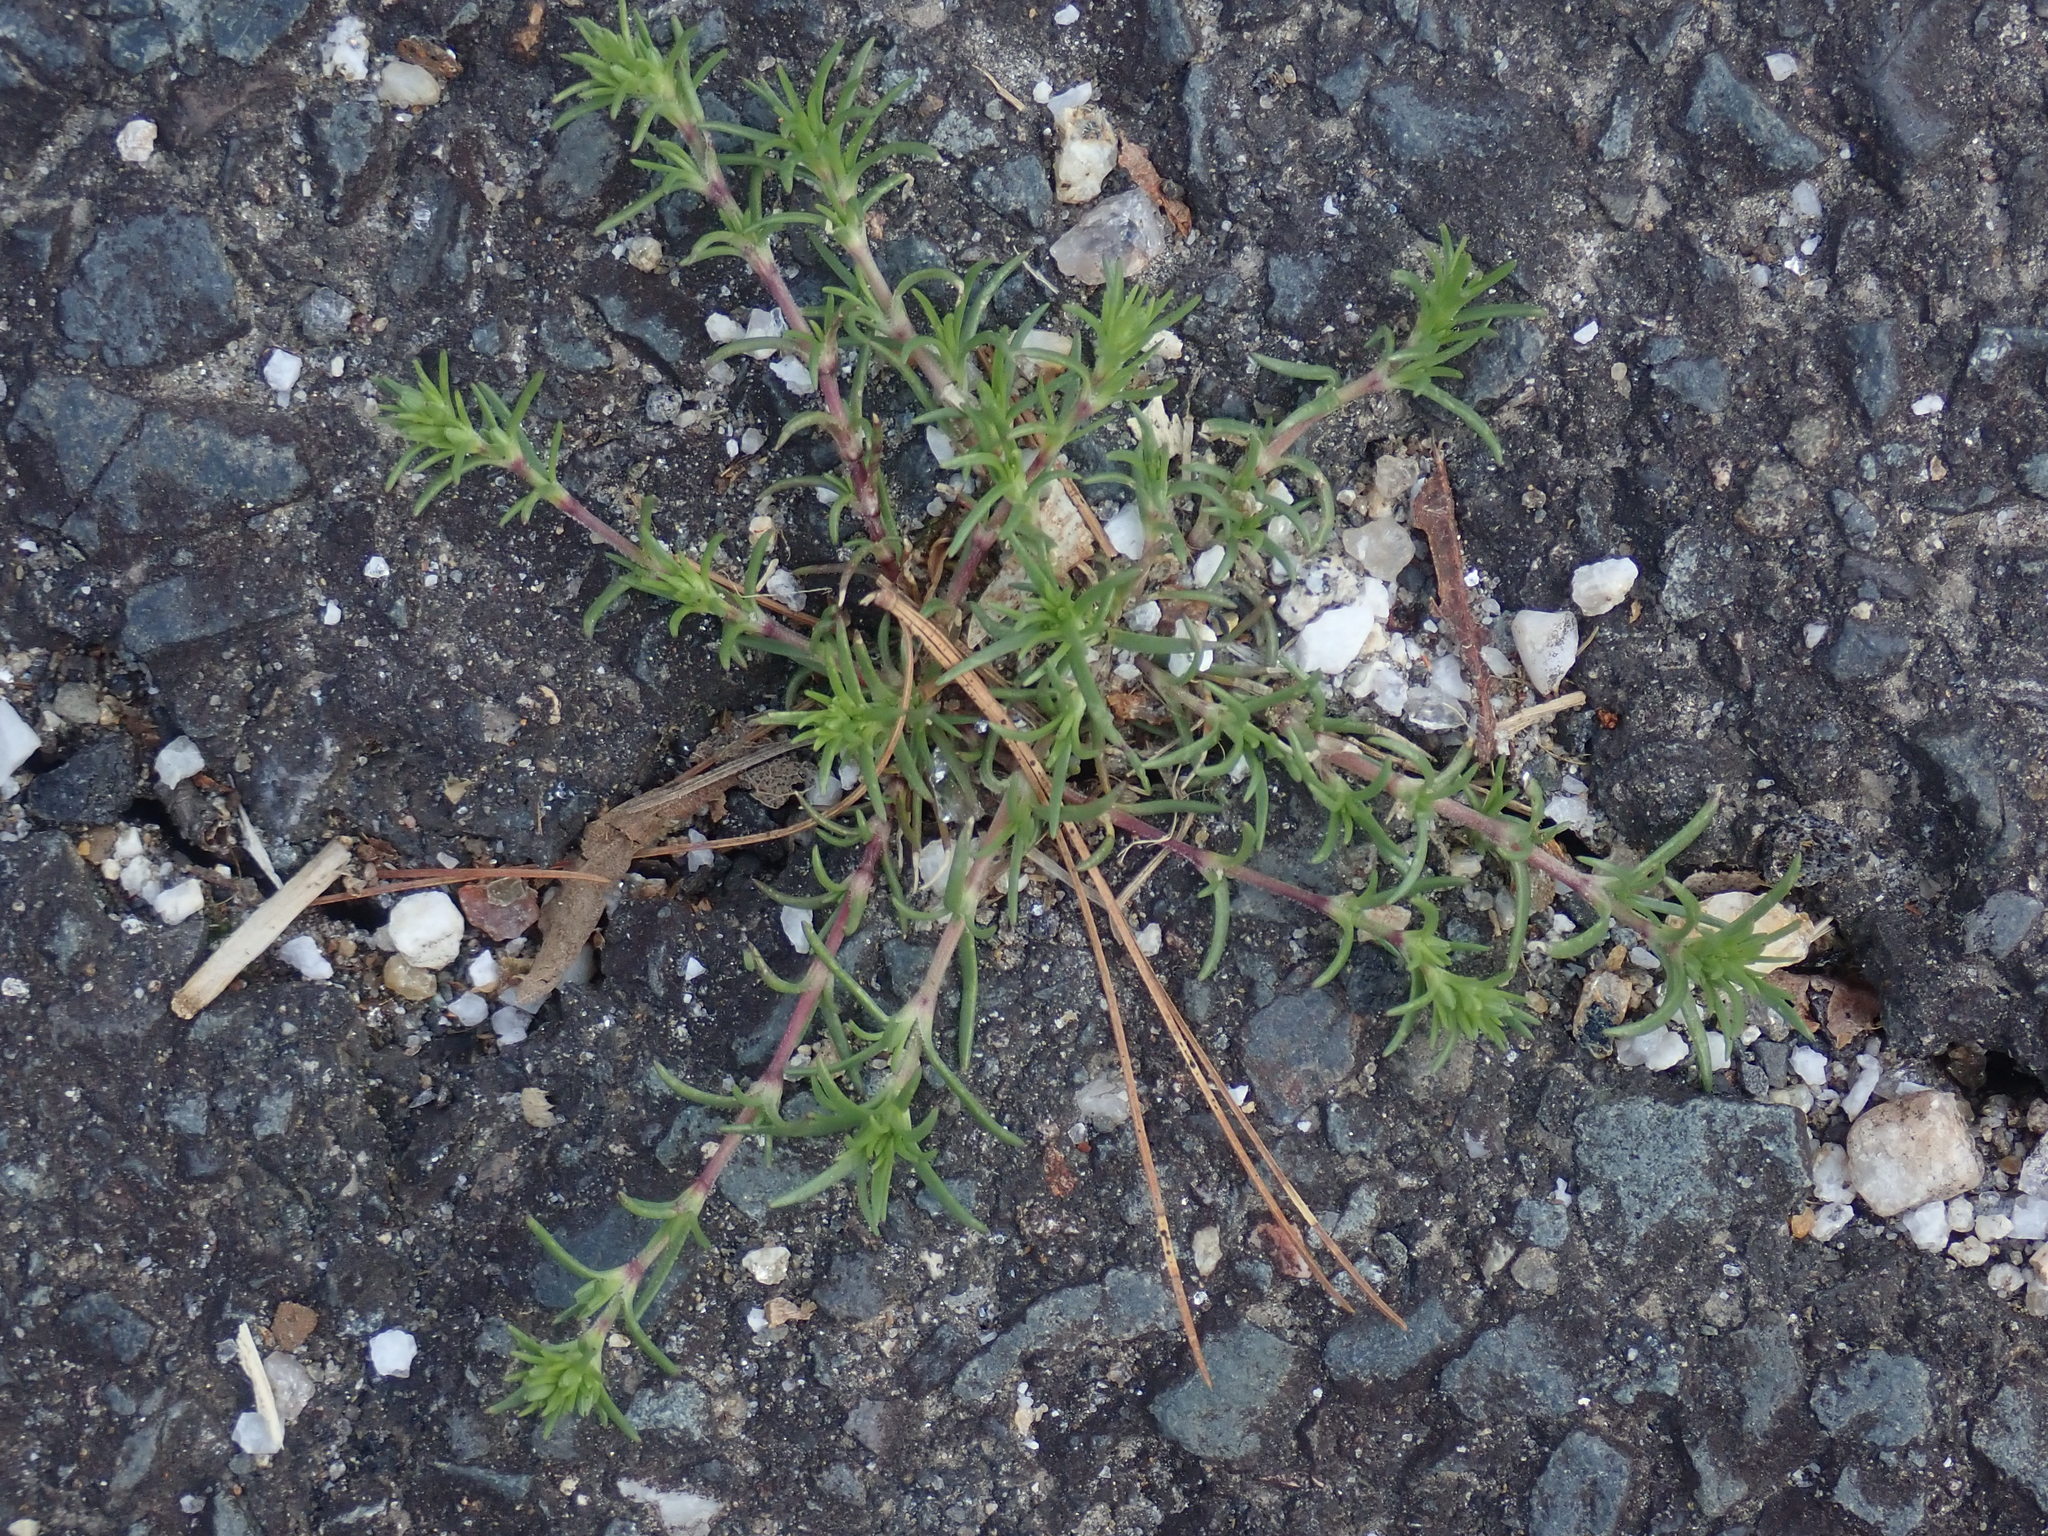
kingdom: Plantae
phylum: Tracheophyta
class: Magnoliopsida
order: Caryophyllales
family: Caryophyllaceae
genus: Spergularia
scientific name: Spergularia rubra
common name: Red sand-spurrey
